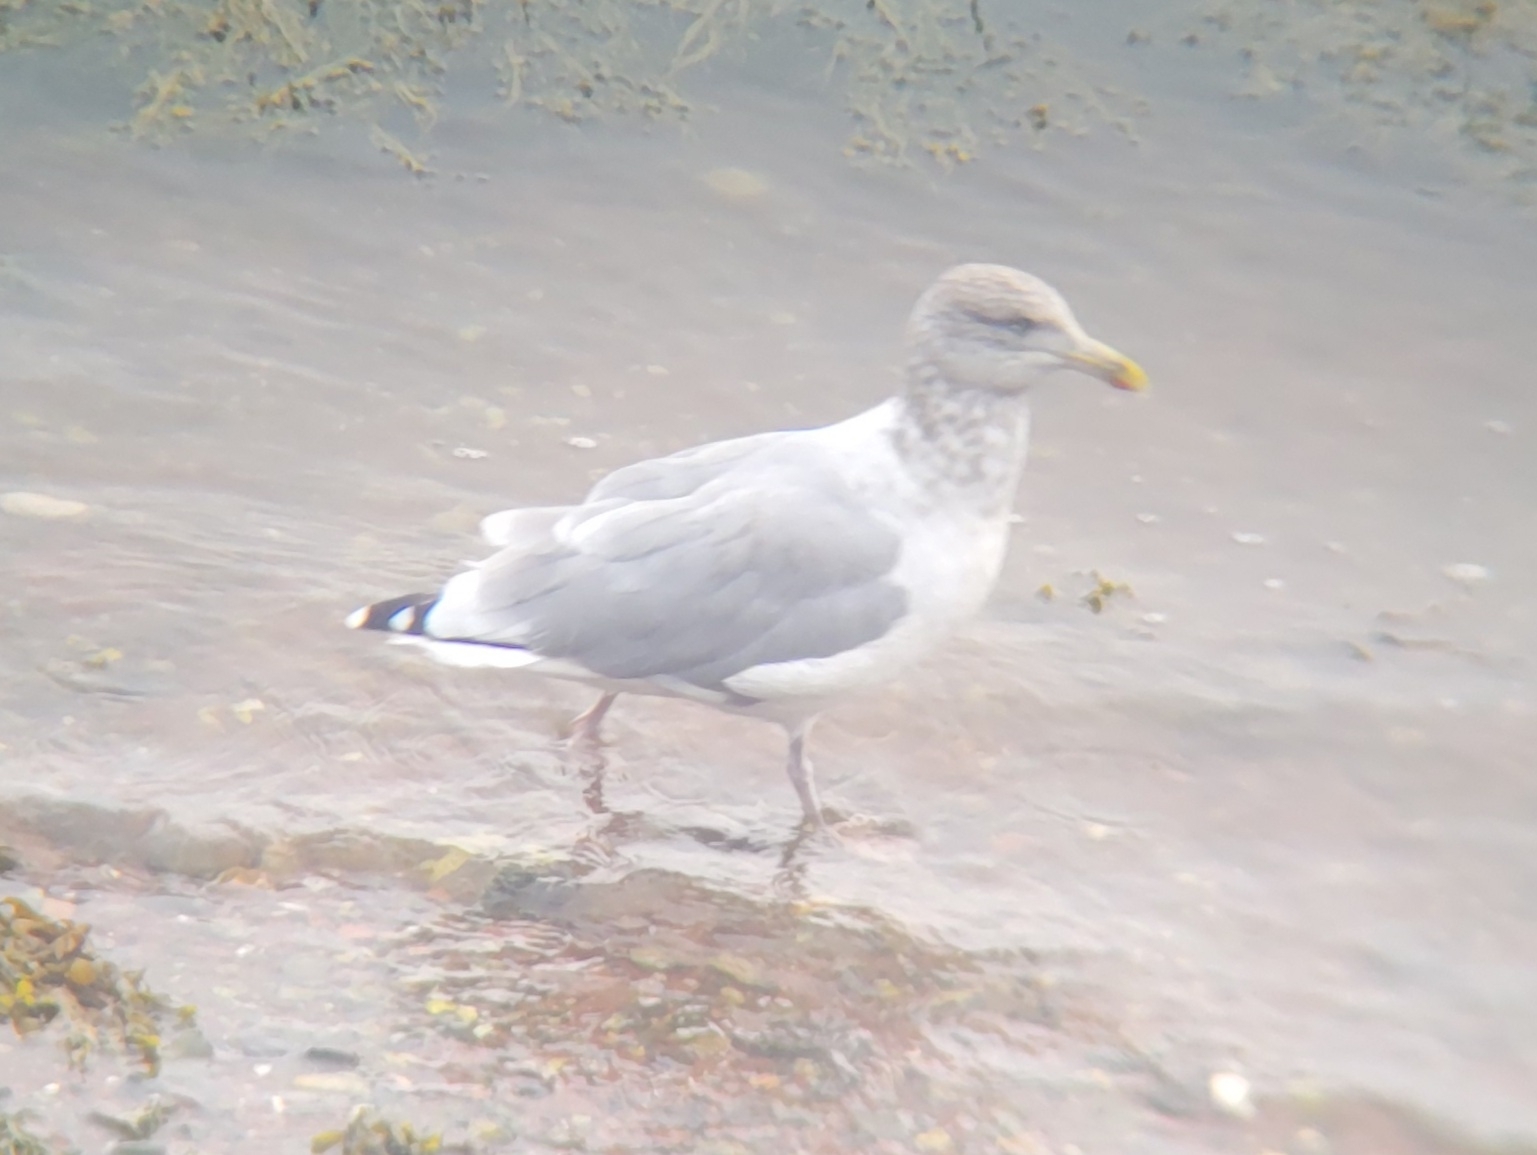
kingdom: Animalia
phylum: Chordata
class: Aves
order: Charadriiformes
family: Laridae
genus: Larus
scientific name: Larus argentatus
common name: Herring gull
